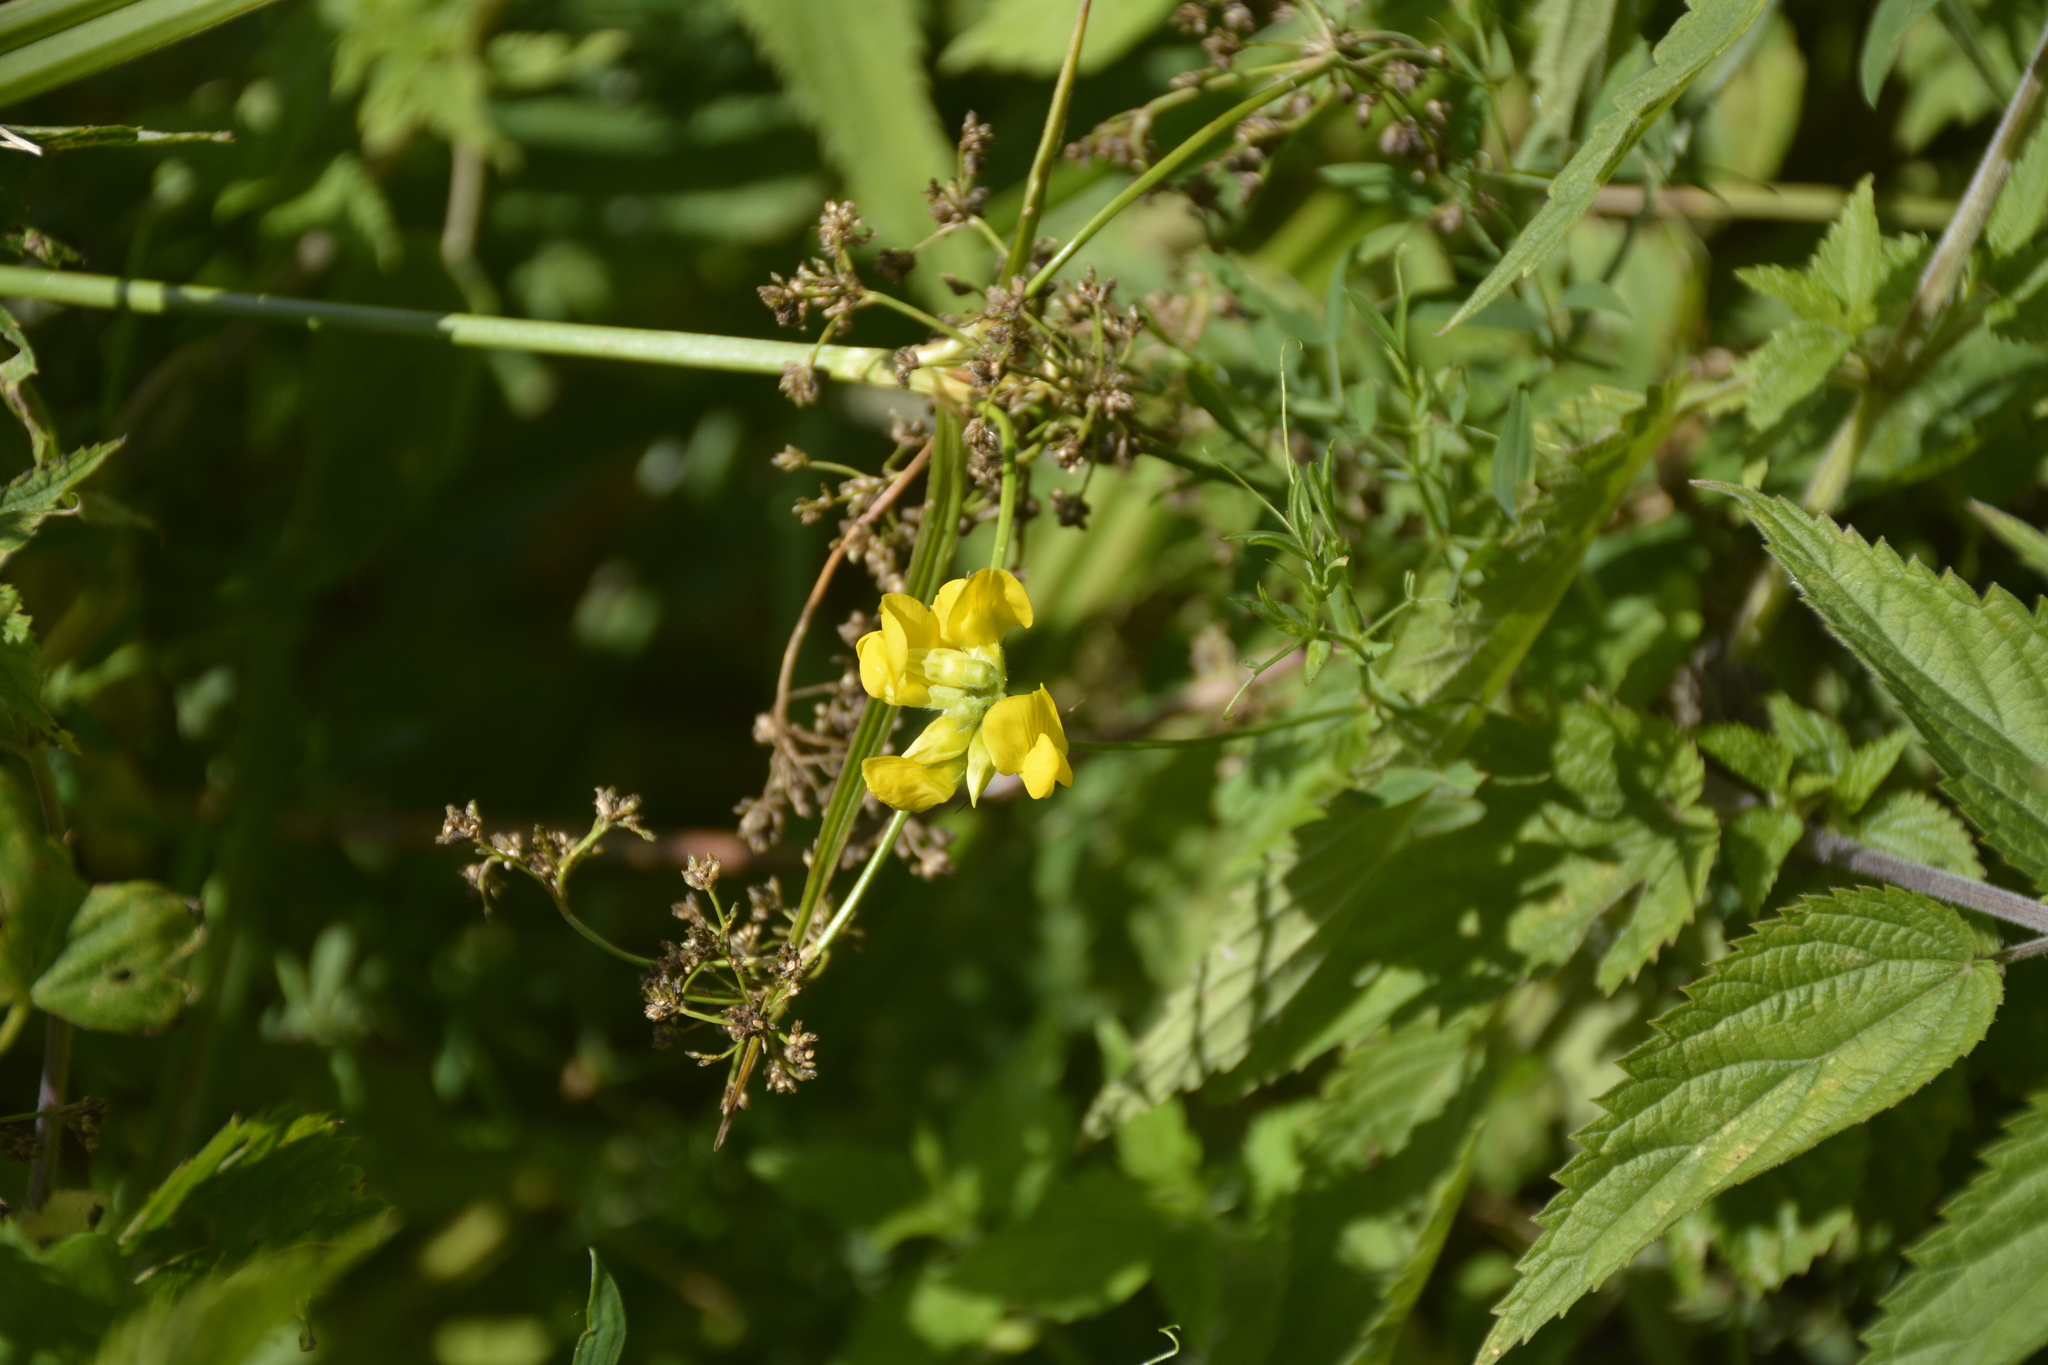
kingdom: Plantae
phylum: Tracheophyta
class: Magnoliopsida
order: Fabales
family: Fabaceae
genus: Lathyrus
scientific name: Lathyrus pratensis
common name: Meadow vetchling
